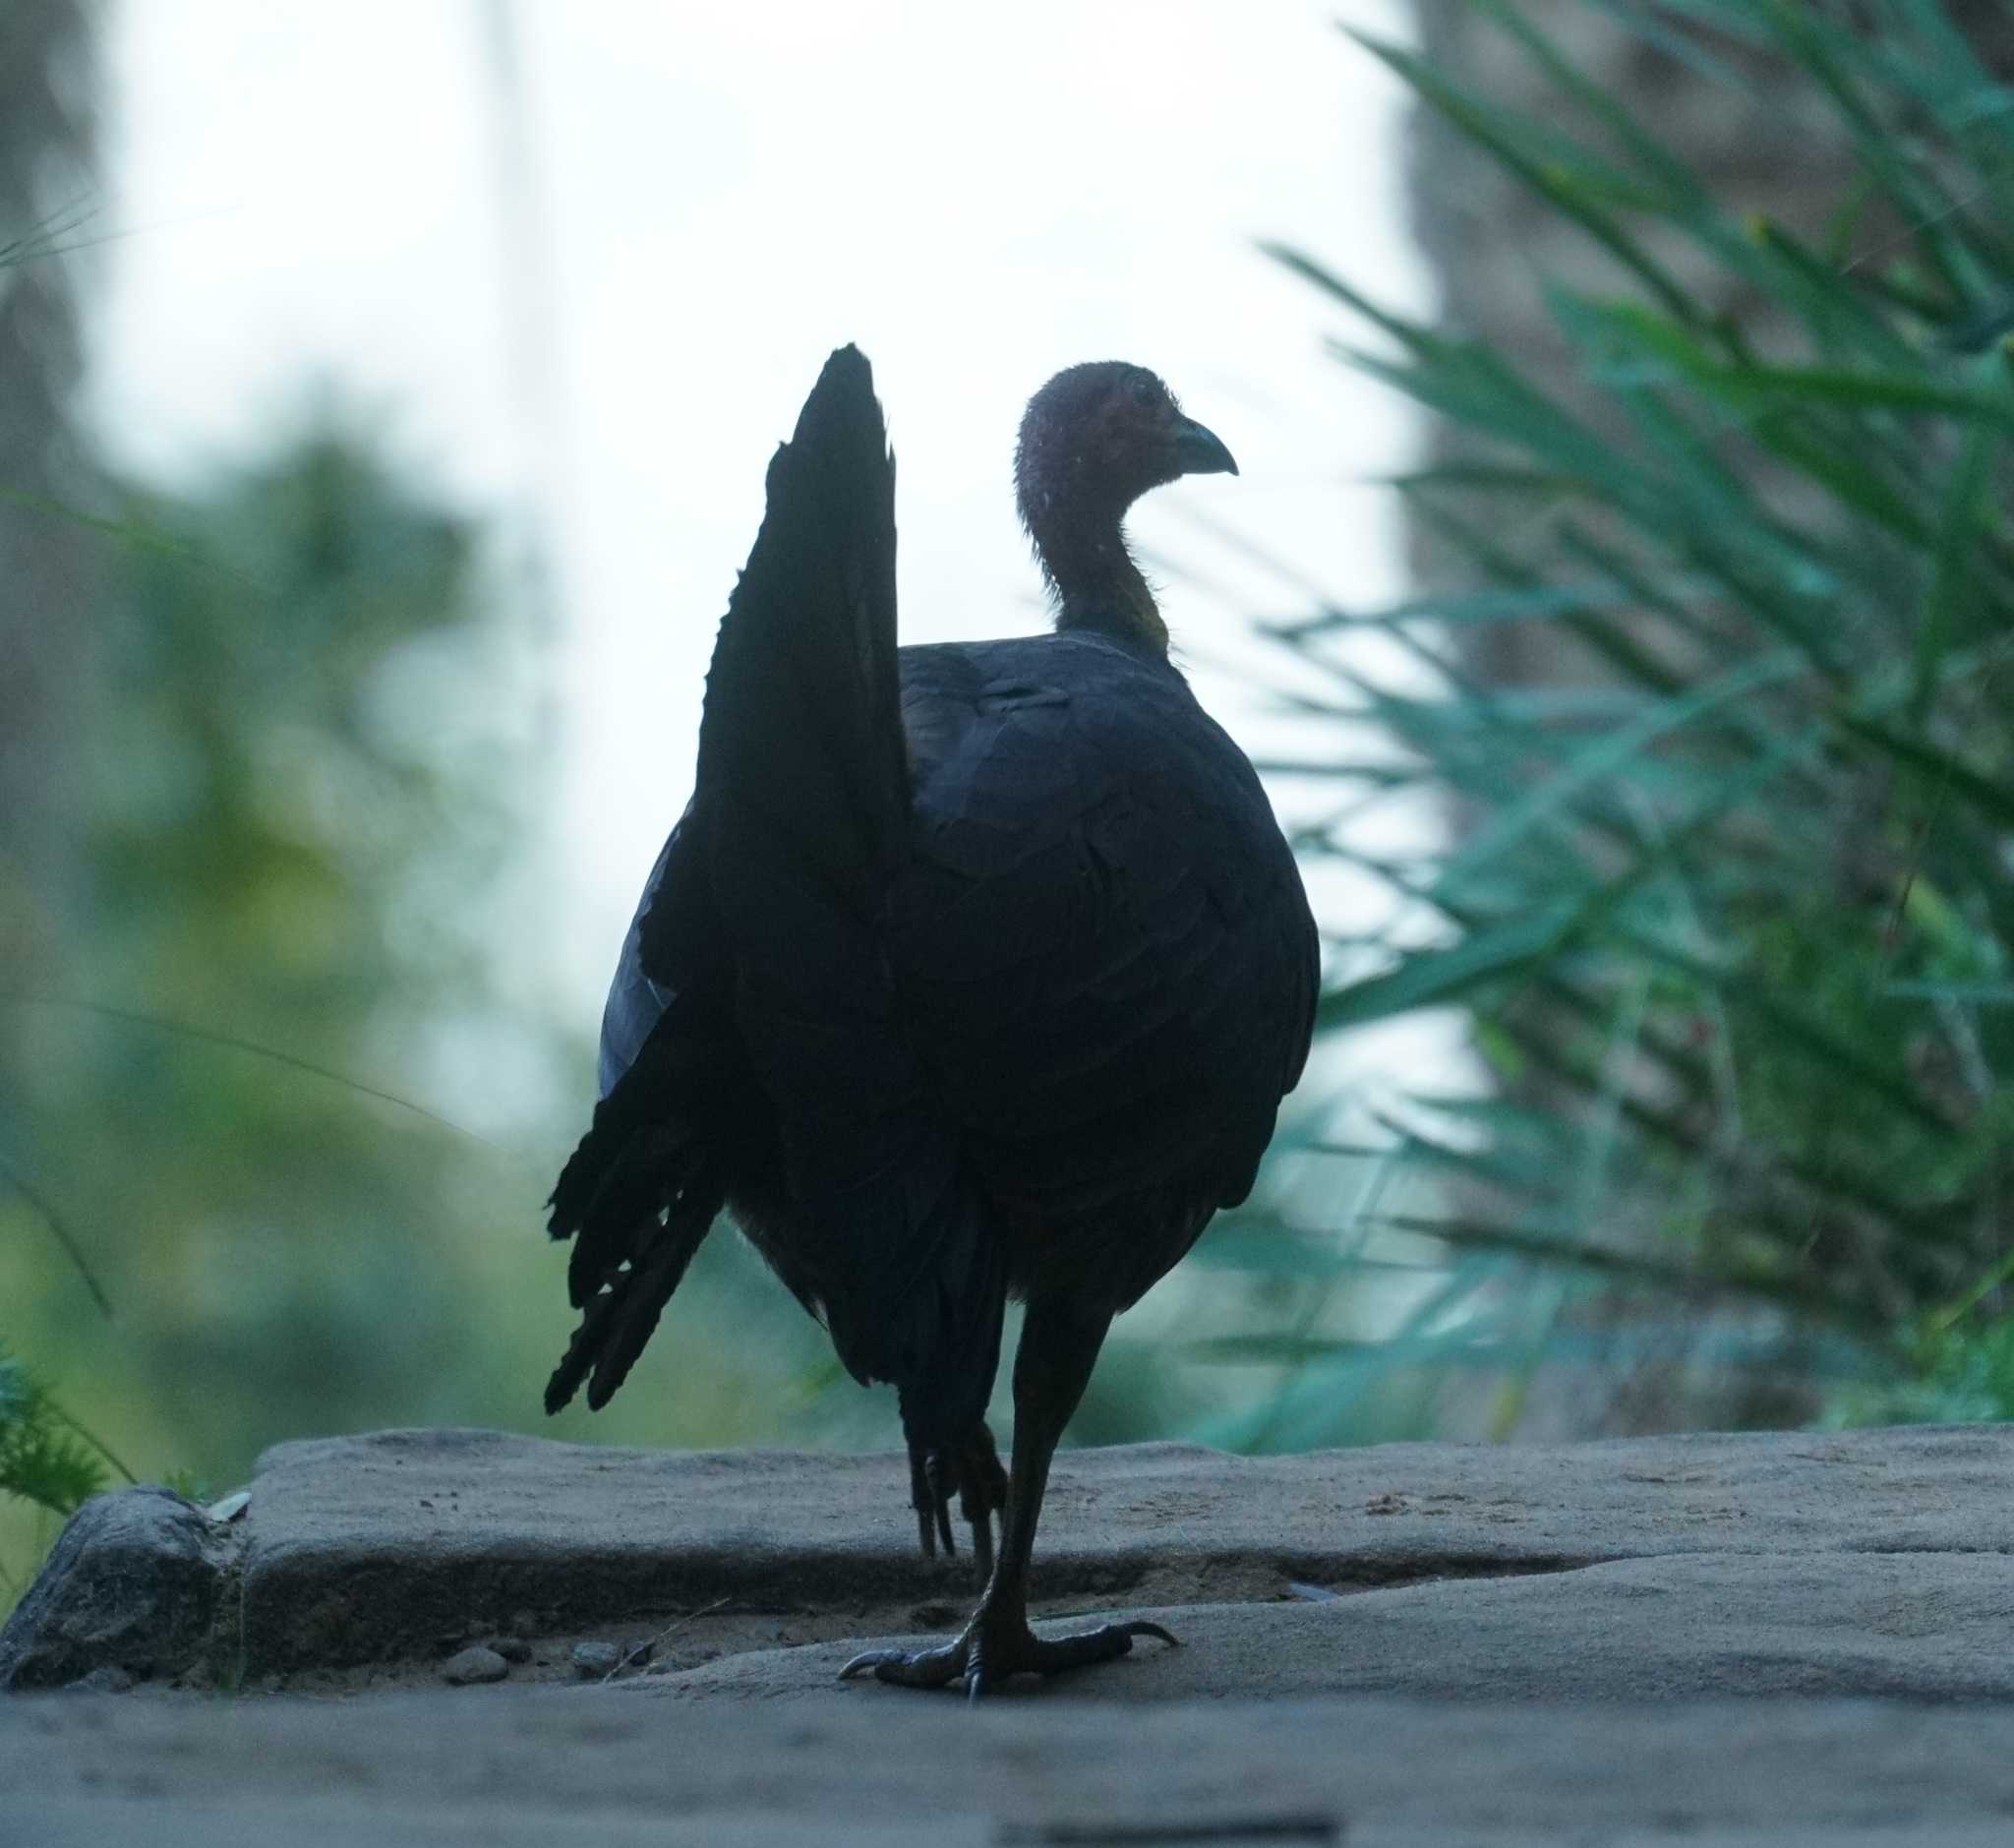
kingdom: Animalia
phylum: Chordata
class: Aves
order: Galliformes
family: Megapodiidae
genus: Alectura
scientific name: Alectura lathami
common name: Australian brushturkey
